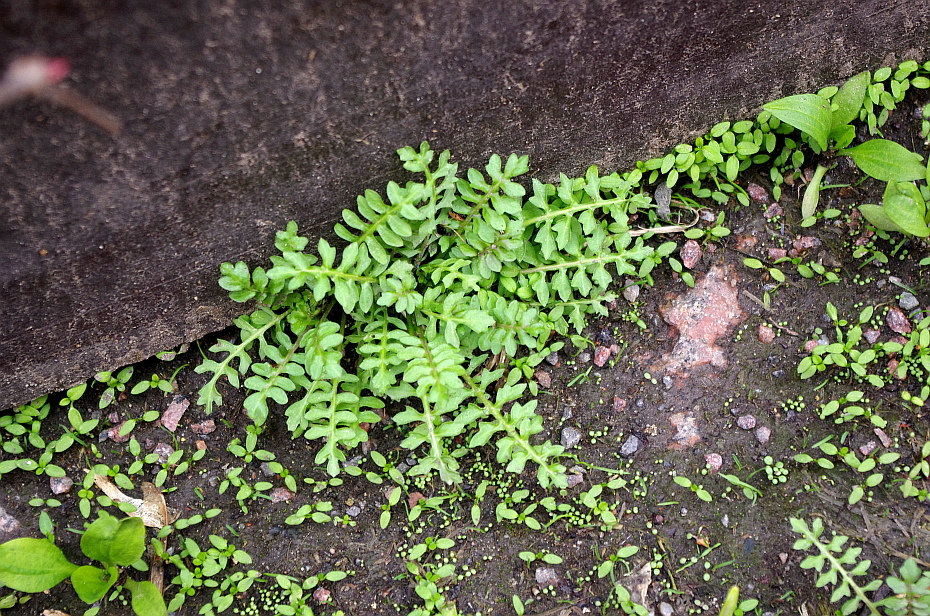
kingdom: Plantae
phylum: Tracheophyta
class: Magnoliopsida
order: Brassicales
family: Brassicaceae
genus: Rorippa
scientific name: Rorippa palustris
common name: Marsh yellow-cress
